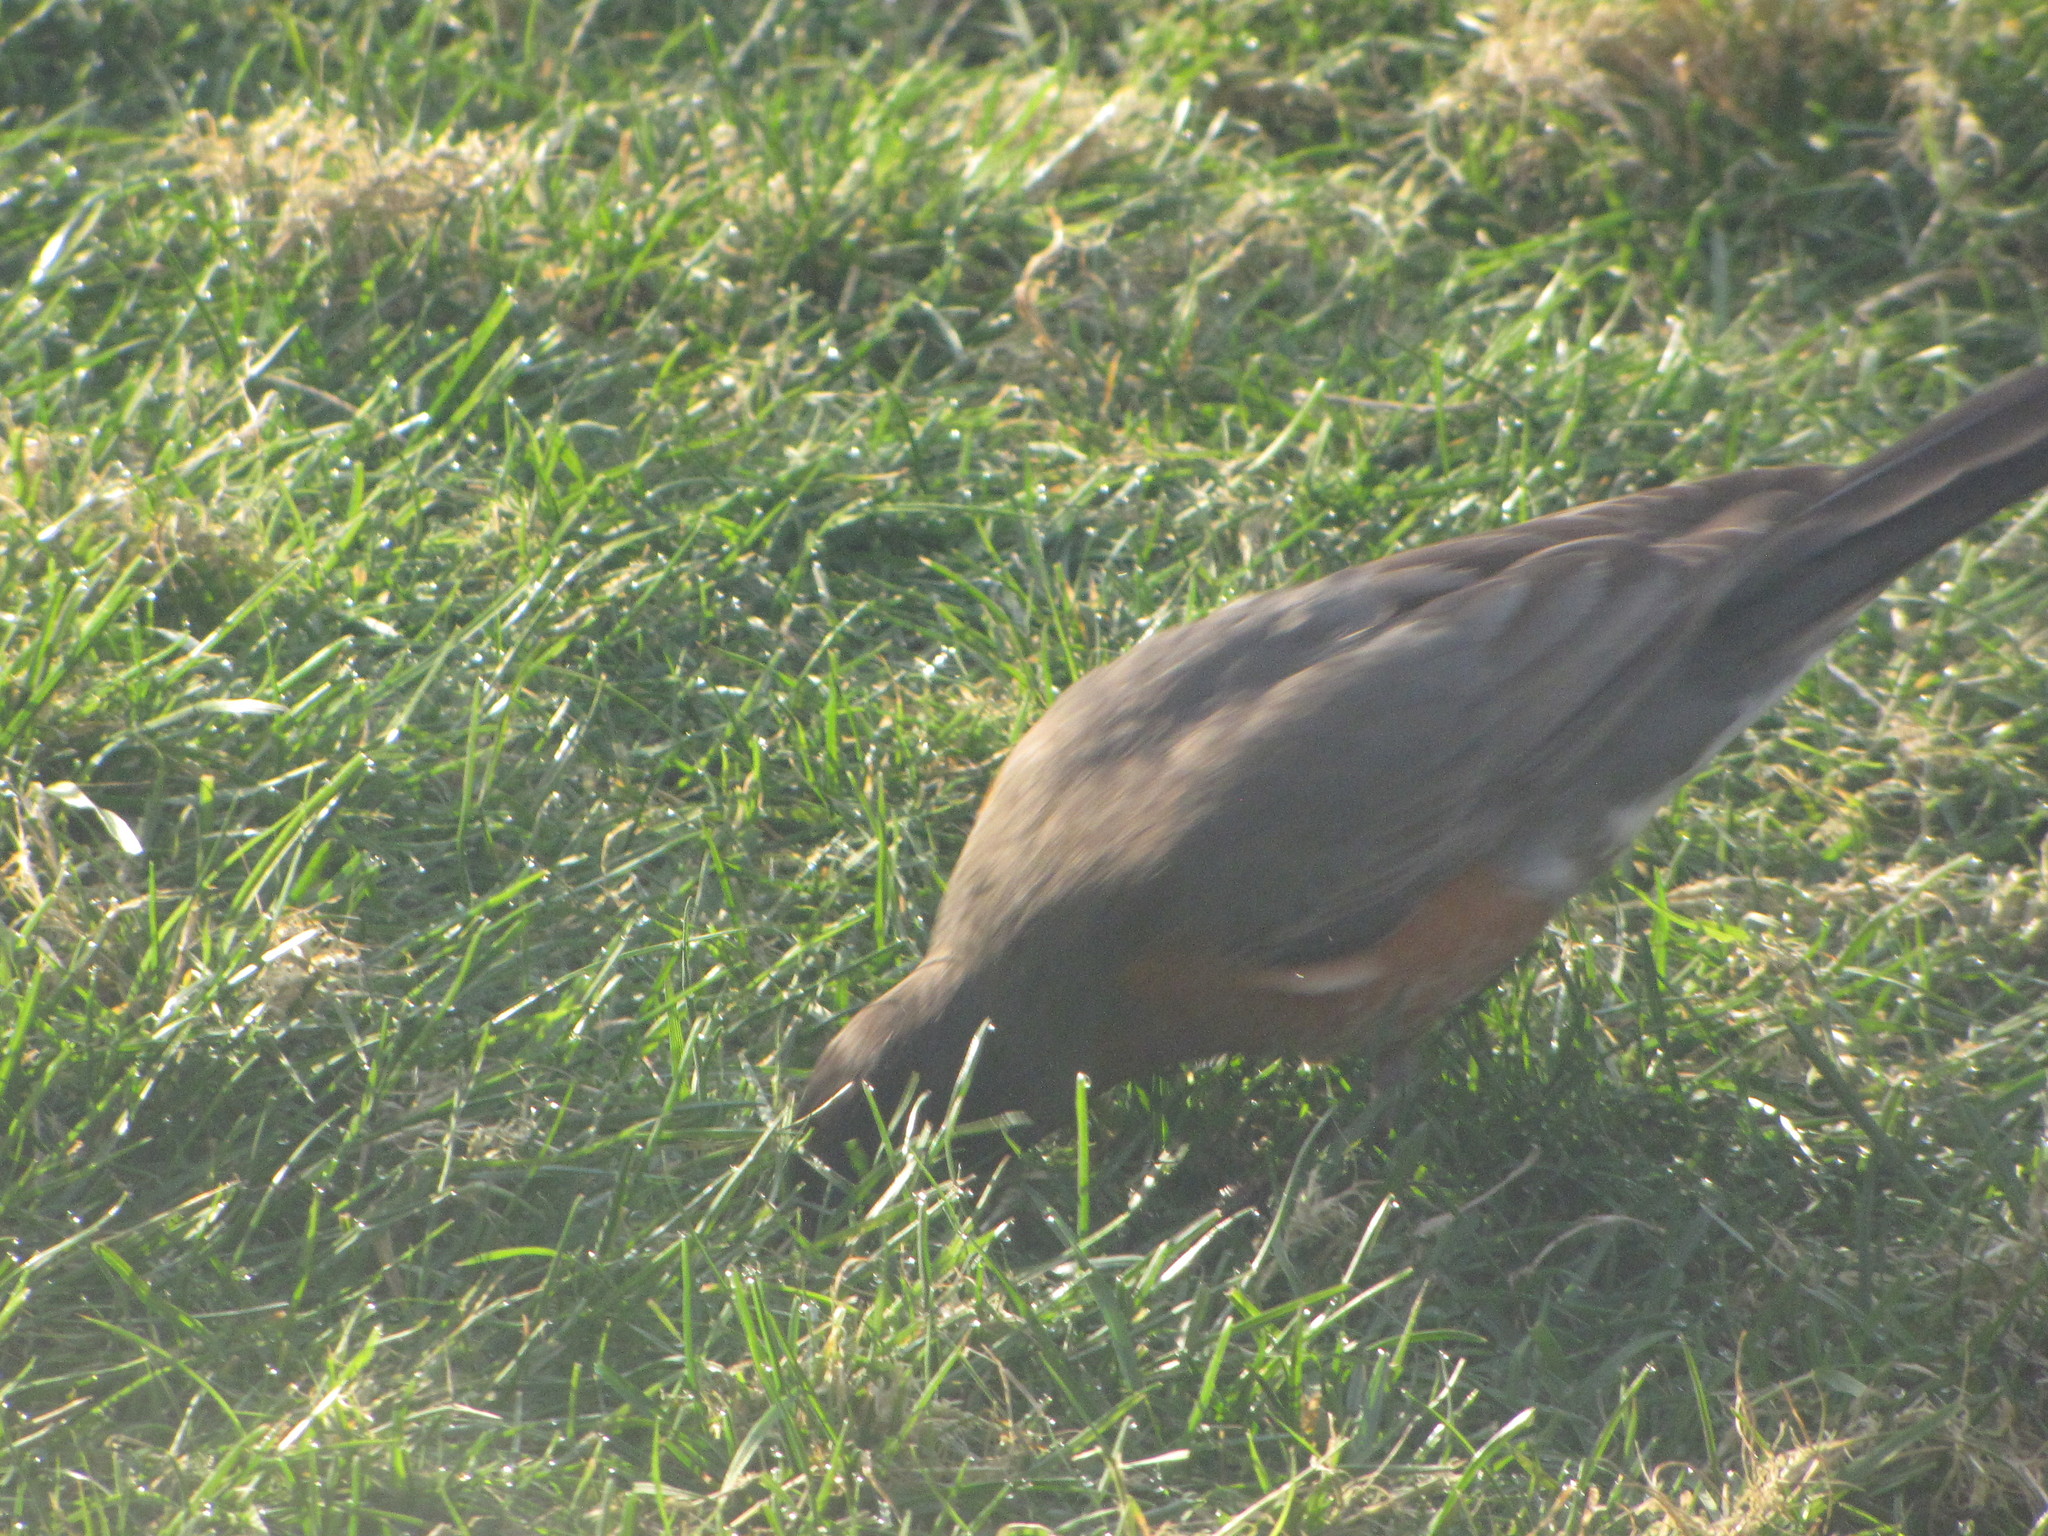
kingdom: Animalia
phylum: Chordata
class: Aves
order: Passeriformes
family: Turdidae
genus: Turdus
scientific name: Turdus migratorius
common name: American robin
